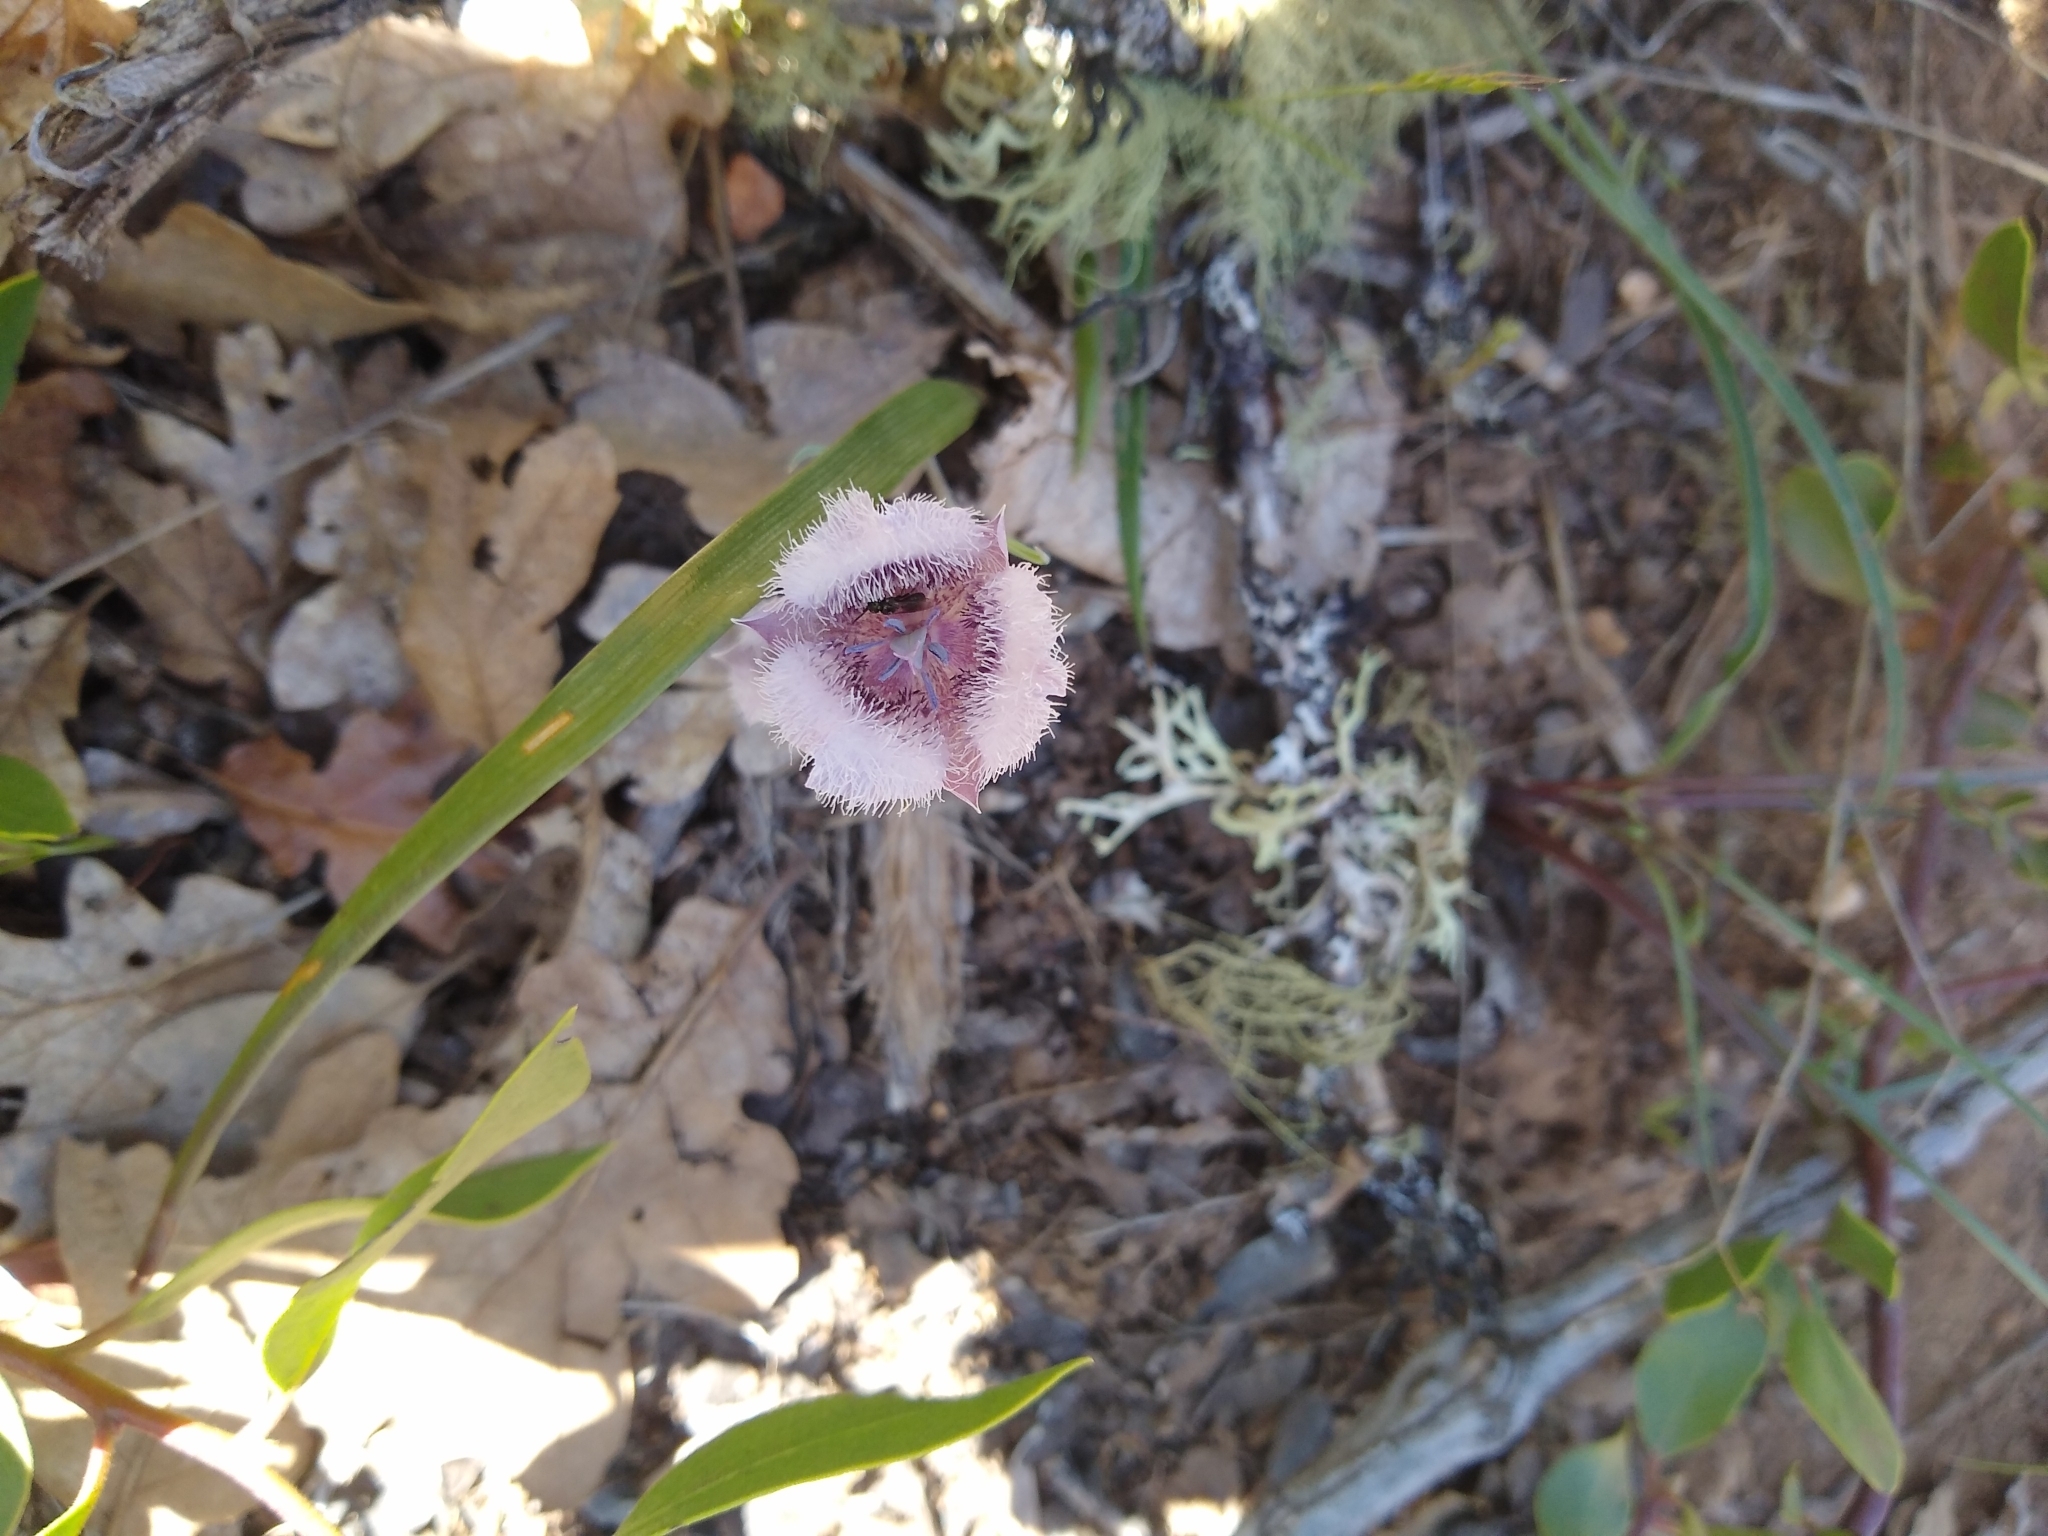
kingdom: Plantae
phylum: Tracheophyta
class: Liliopsida
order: Liliales
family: Liliaceae
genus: Calochortus
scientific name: Calochortus tolmiei
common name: Pussy-ears
